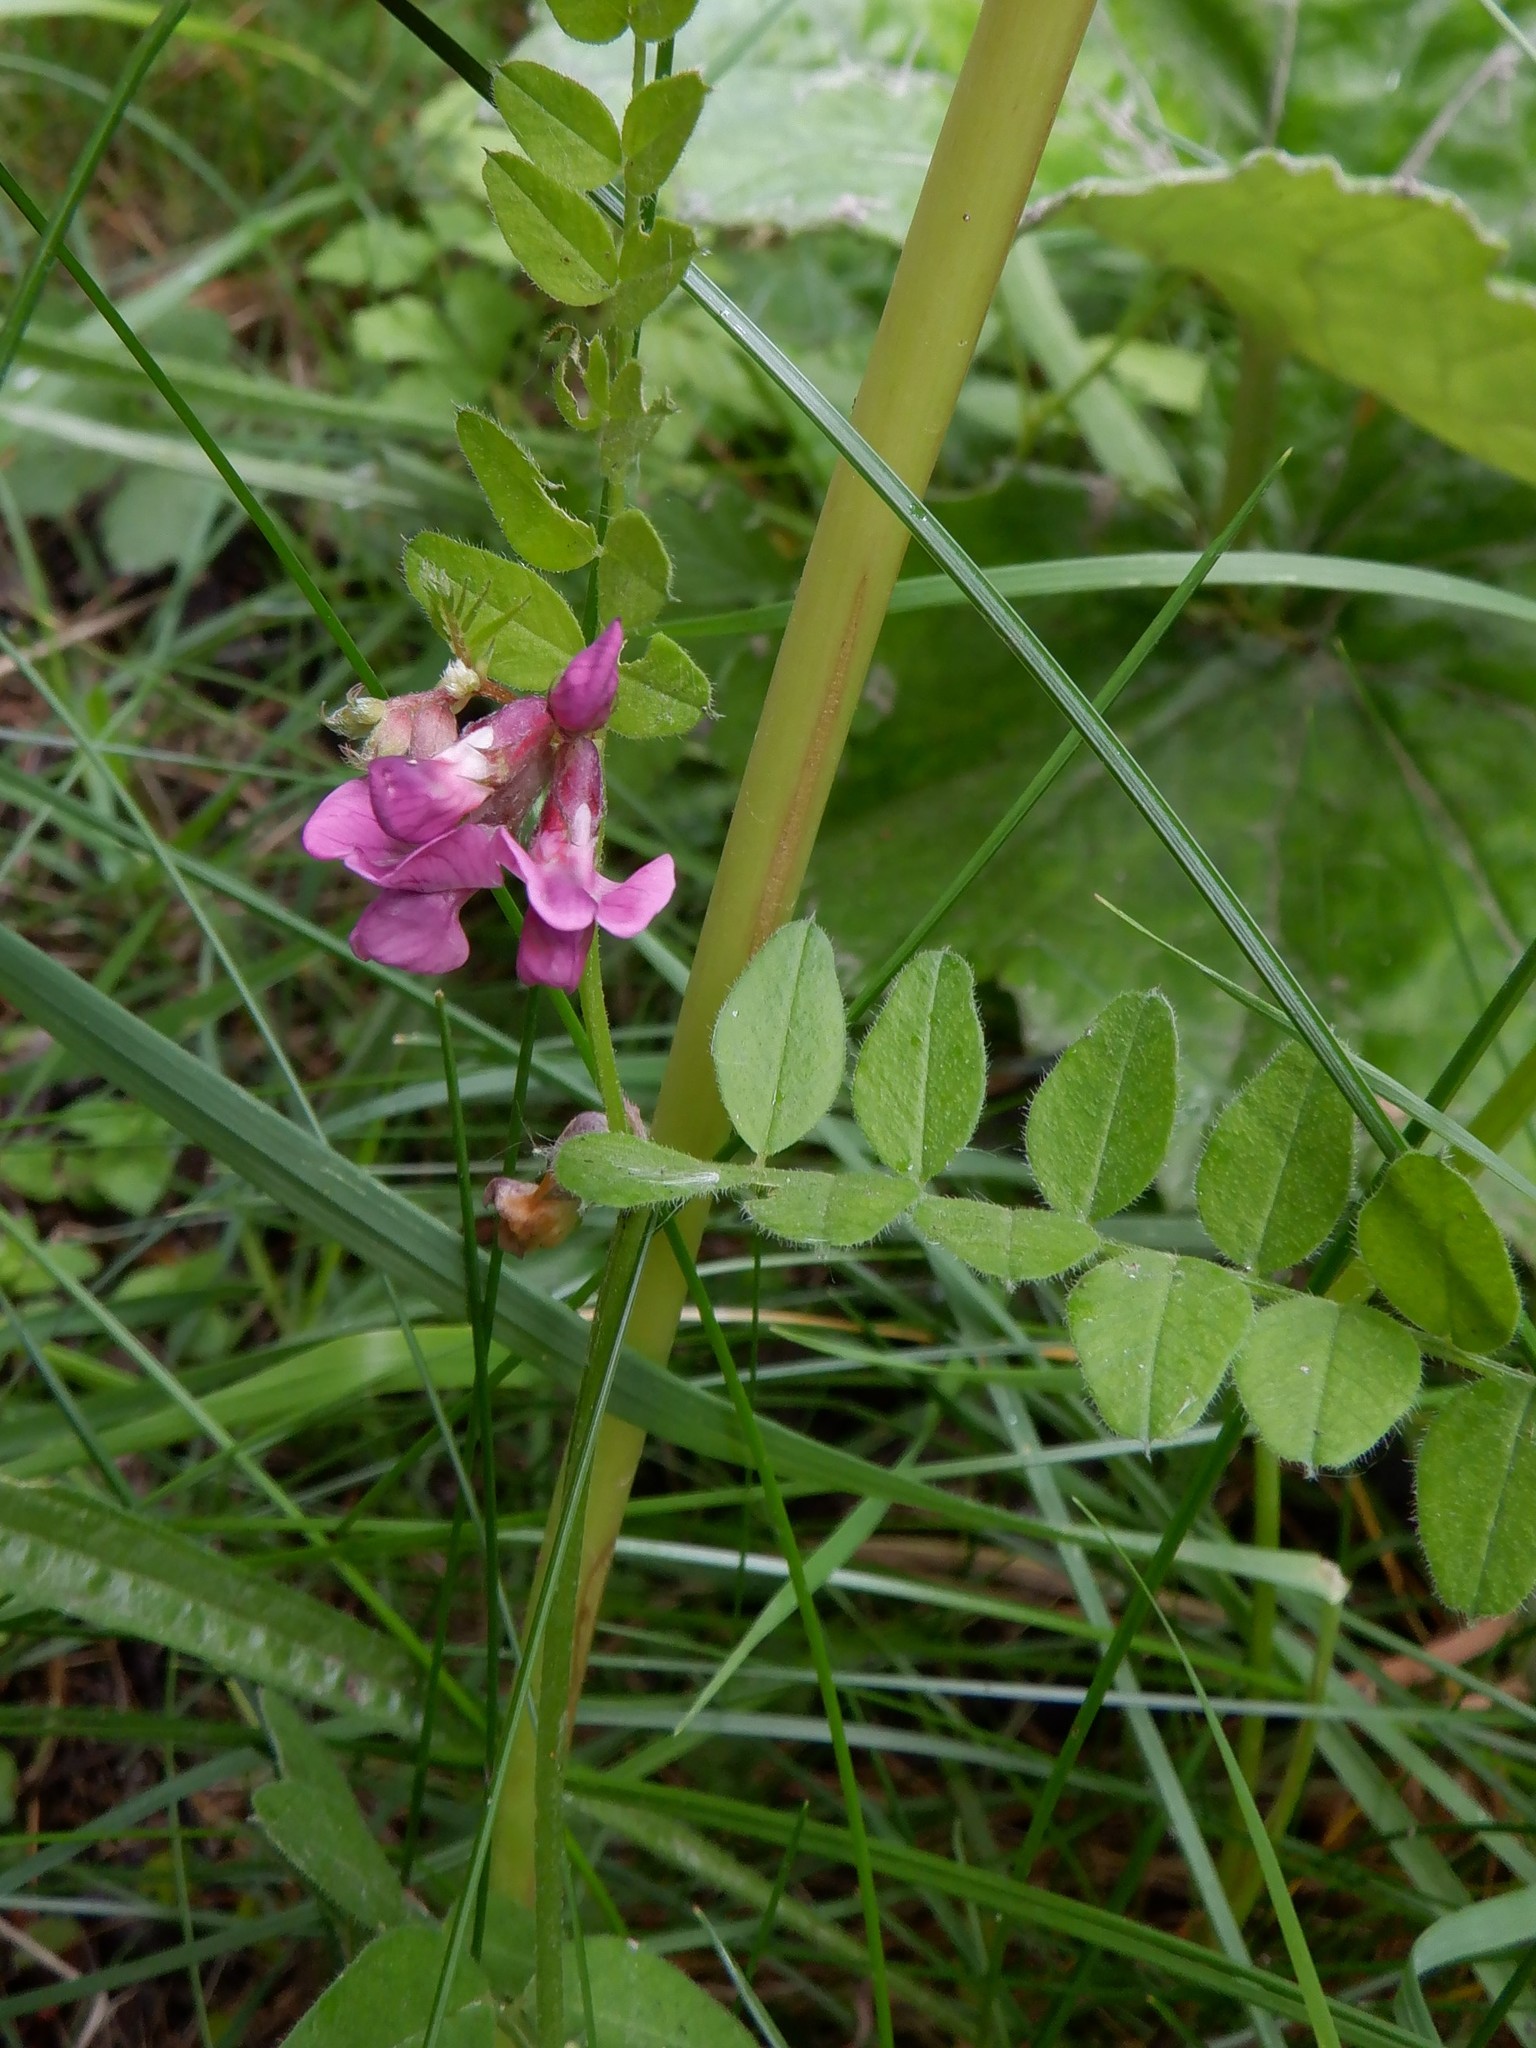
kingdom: Plantae
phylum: Tracheophyta
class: Magnoliopsida
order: Fabales
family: Fabaceae
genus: Vicia
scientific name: Vicia sepium
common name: Bush vetch
